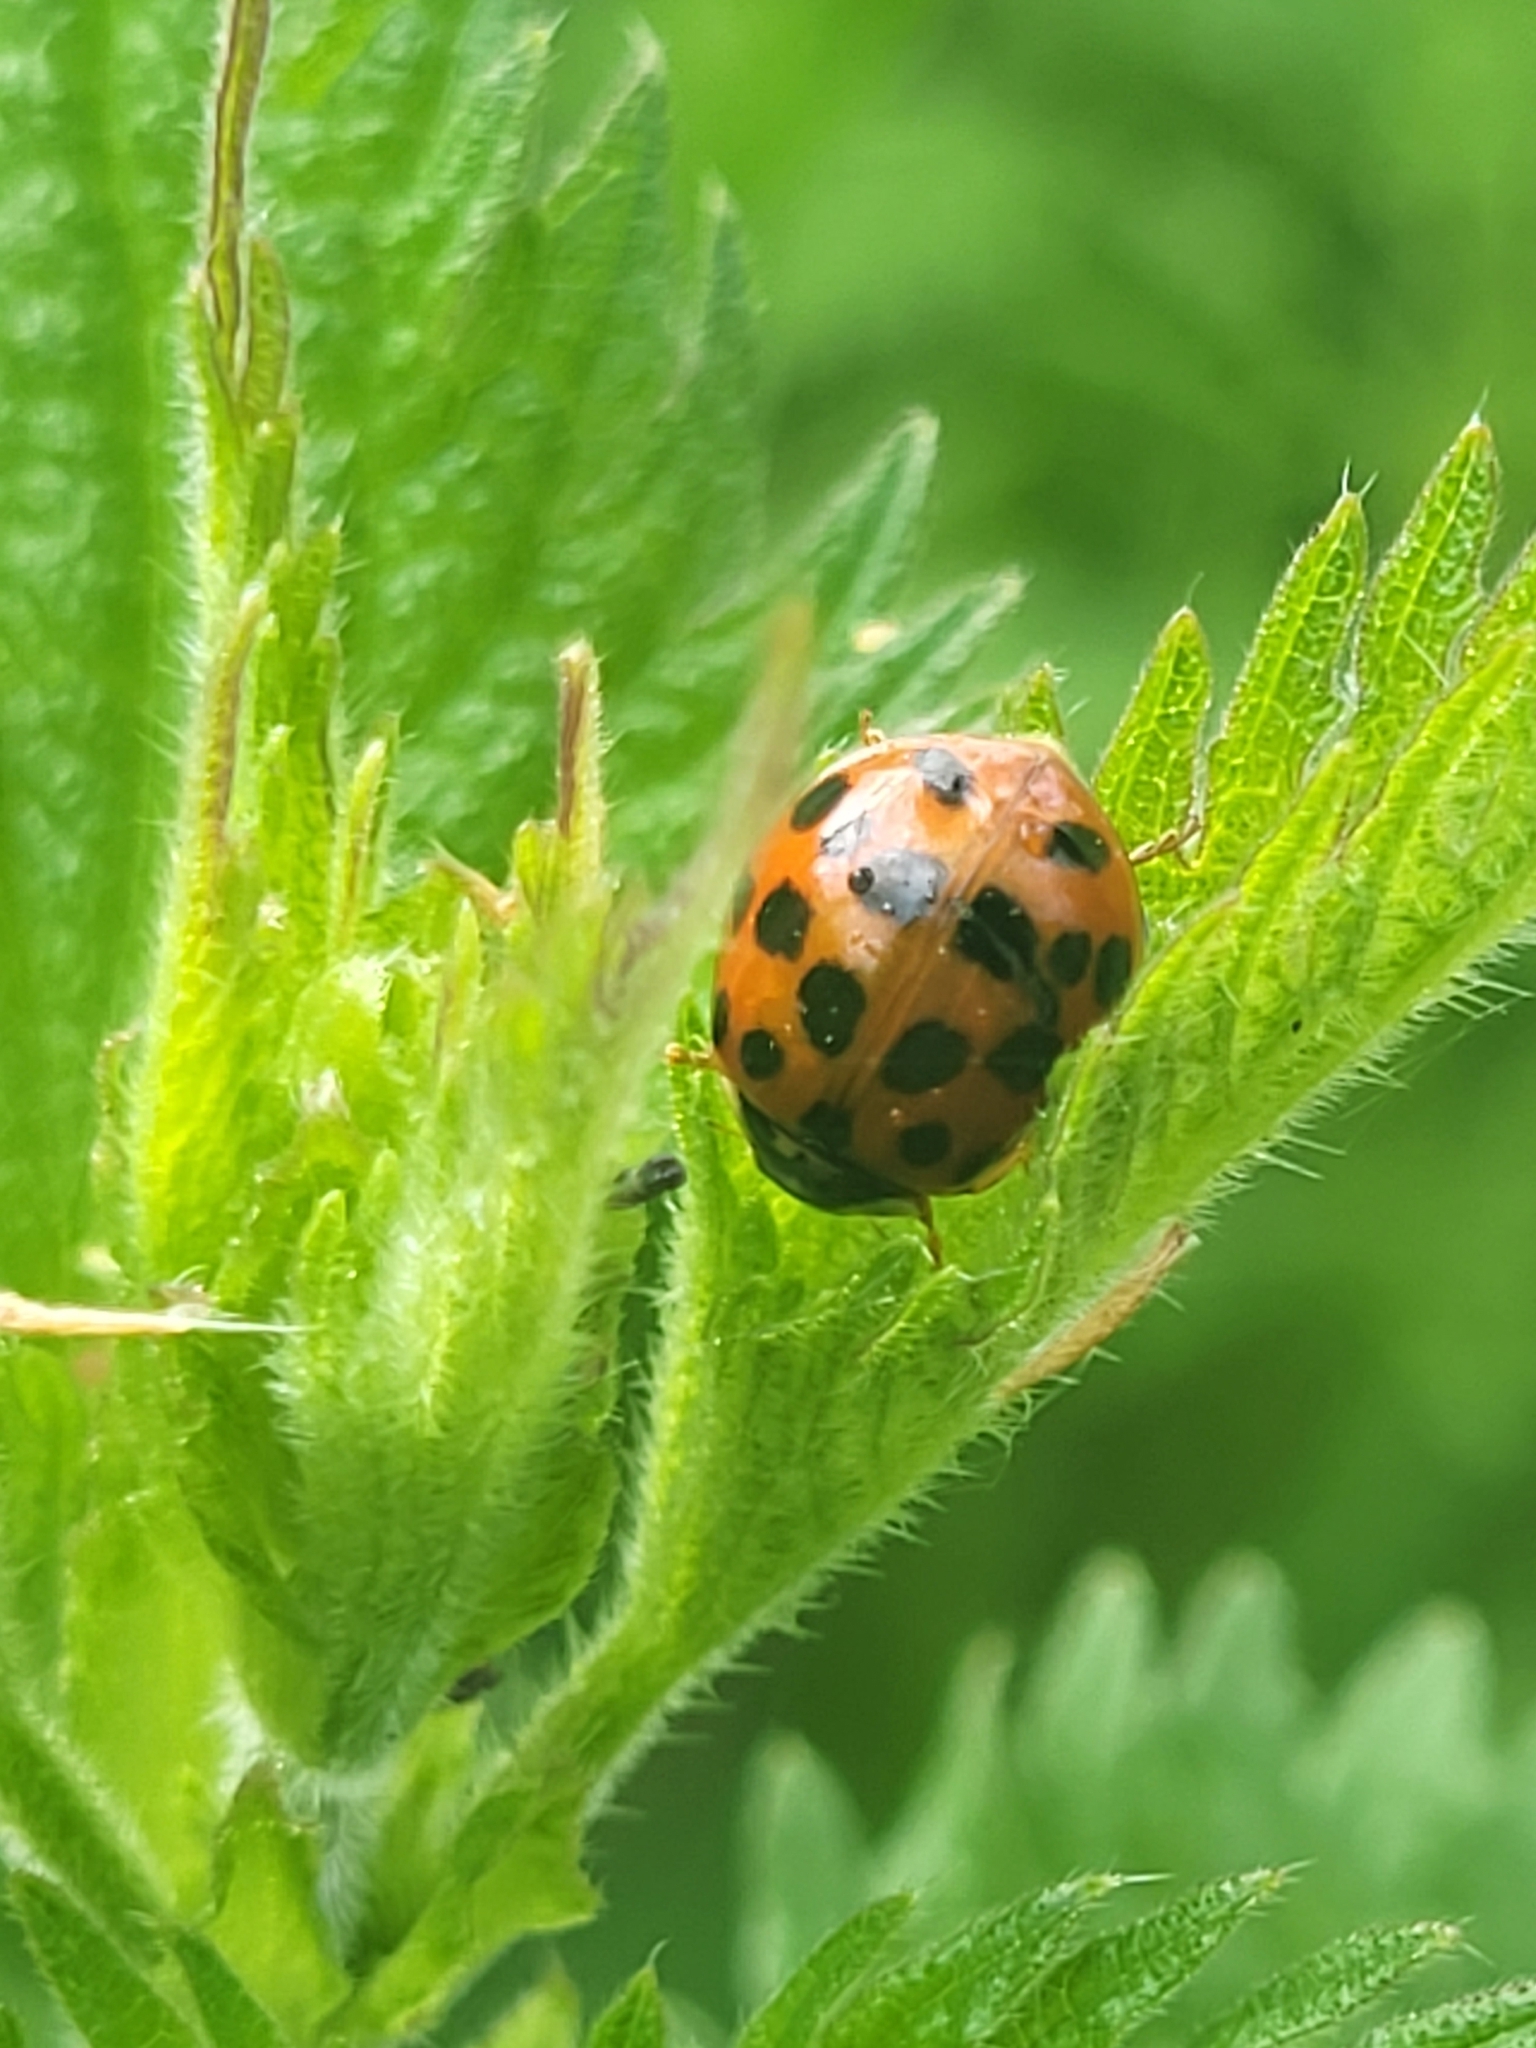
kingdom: Animalia
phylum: Arthropoda
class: Insecta
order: Coleoptera
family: Coccinellidae
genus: Harmonia
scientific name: Harmonia axyridis
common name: Harlequin ladybird
